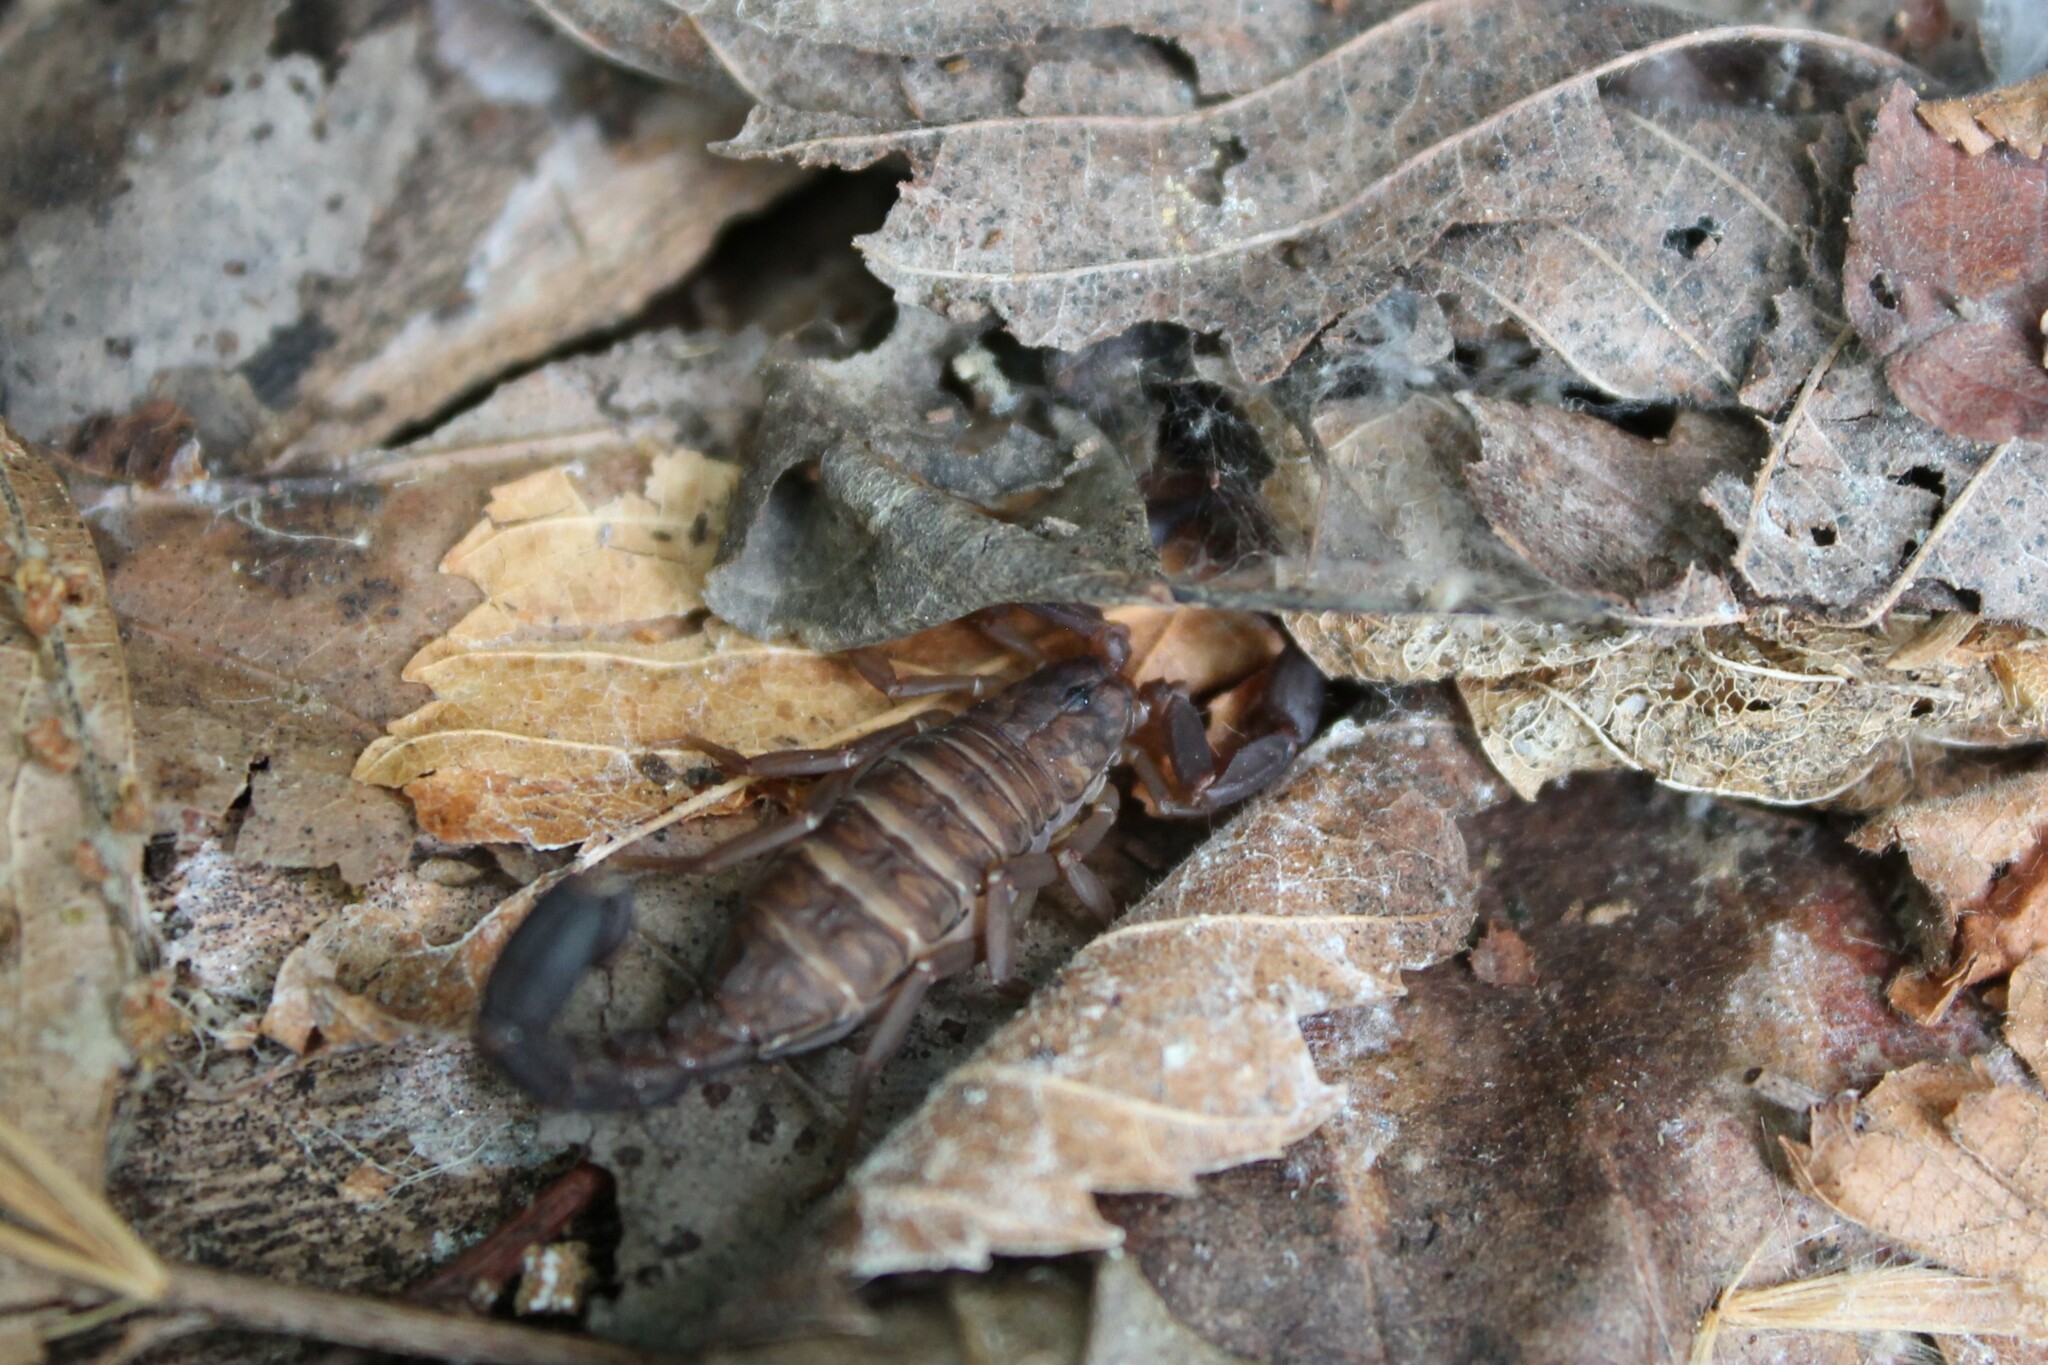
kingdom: Animalia
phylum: Arthropoda
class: Arachnida
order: Scorpiones
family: Vaejovidae
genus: Vaejovis
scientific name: Vaejovis carolinianus
